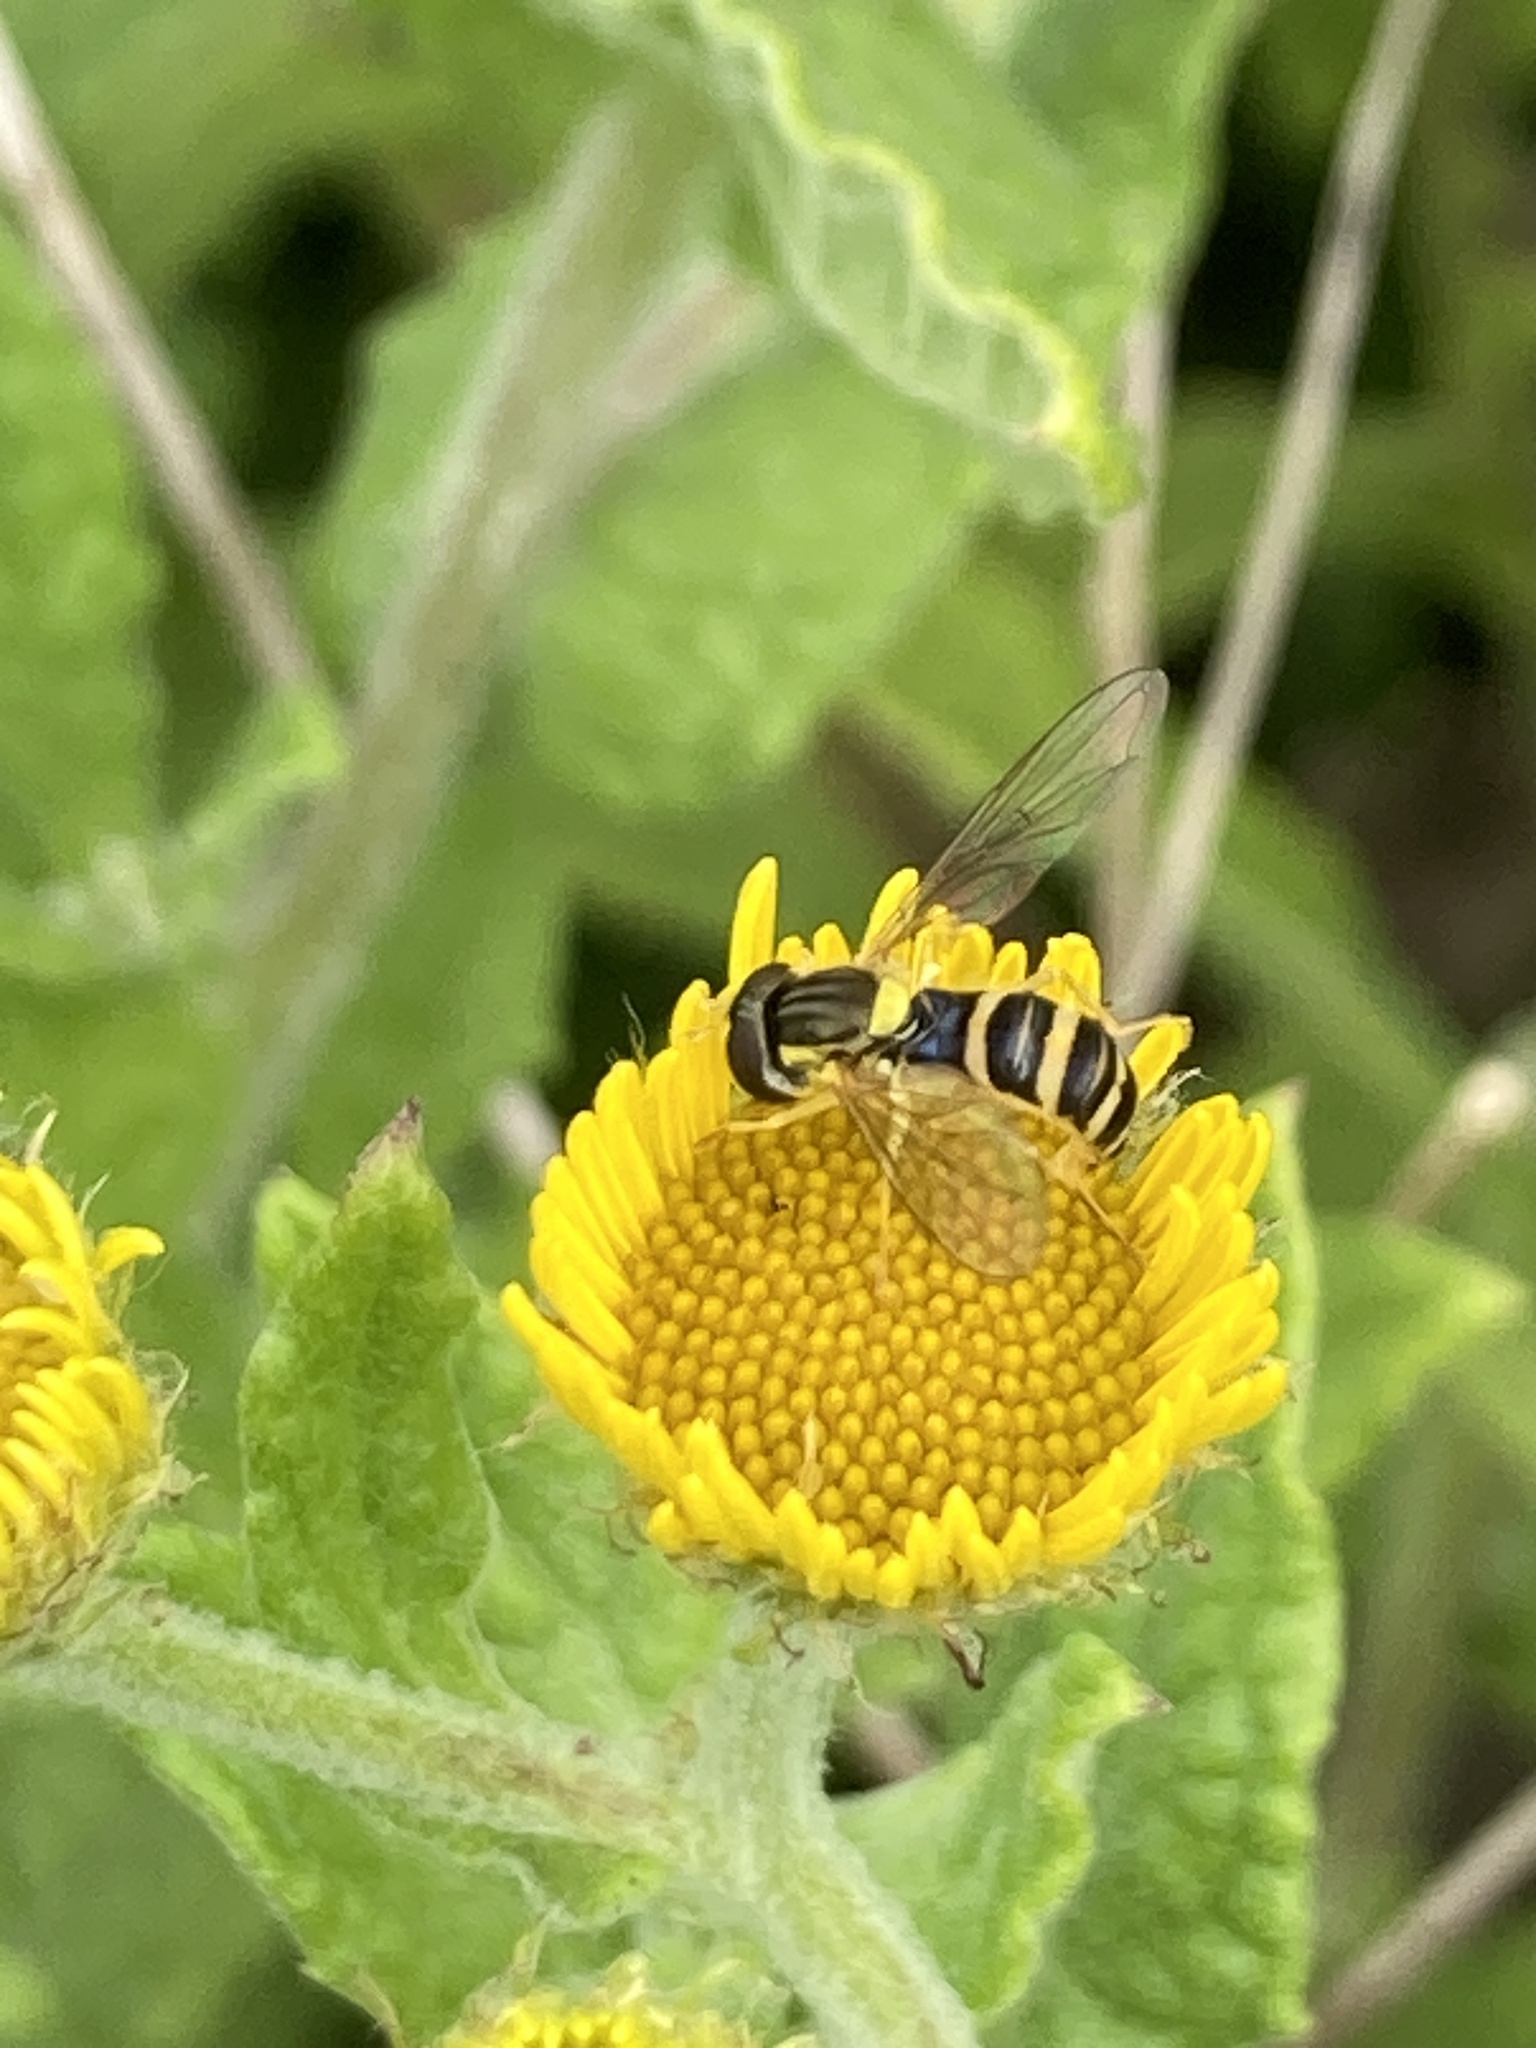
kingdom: Animalia
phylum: Arthropoda
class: Insecta
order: Diptera
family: Syrphidae
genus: Sphaerophoria
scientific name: Sphaerophoria
